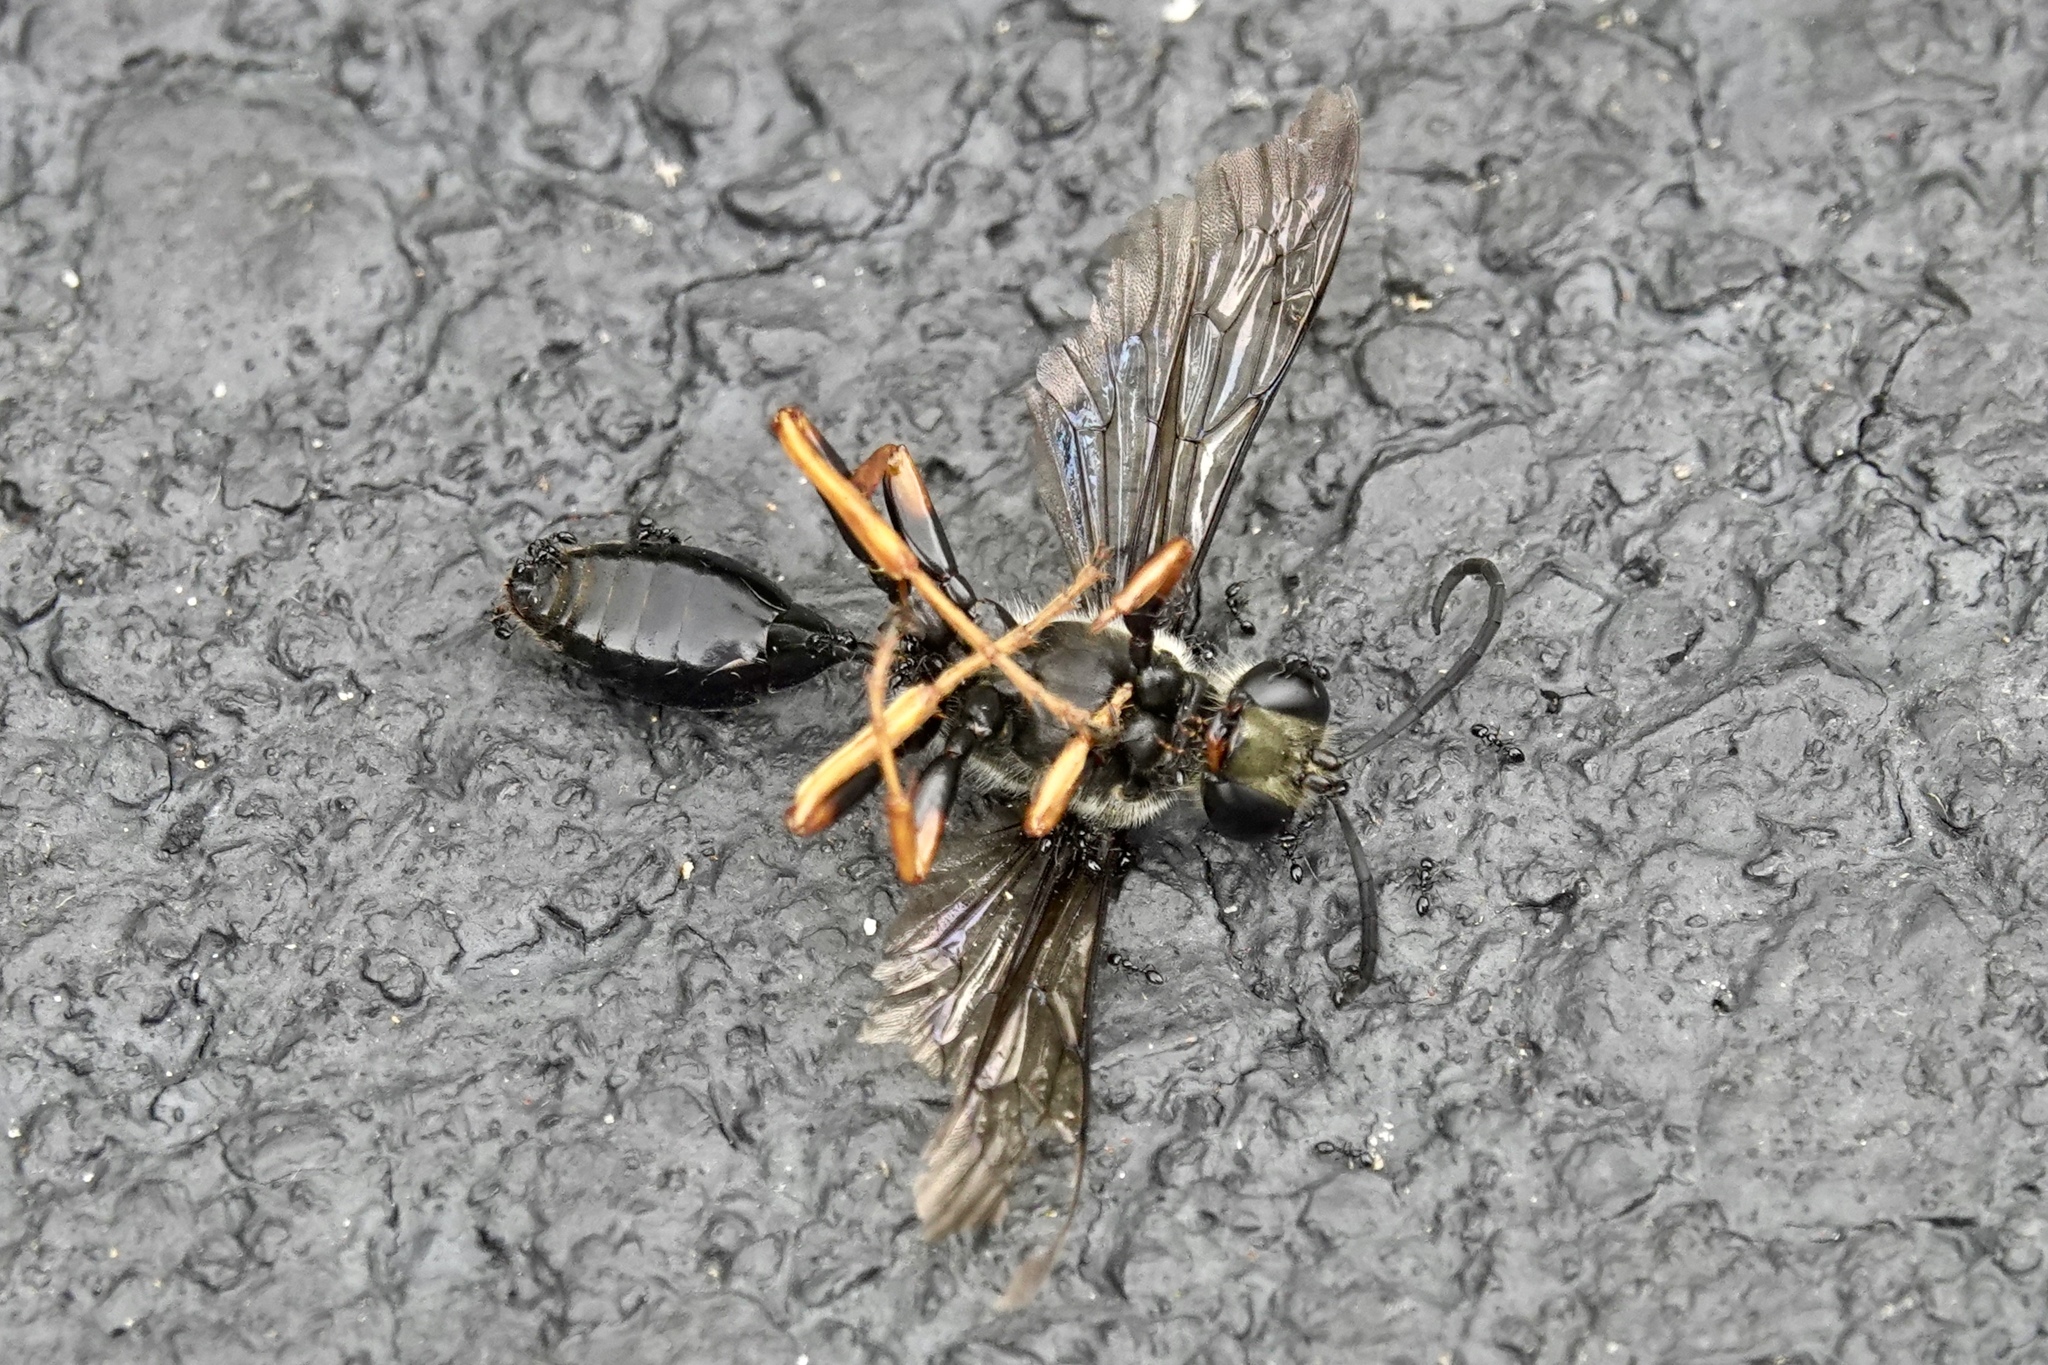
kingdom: Animalia
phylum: Arthropoda
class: Insecta
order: Hymenoptera
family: Sphecidae
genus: Sphex
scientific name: Sphex nudus
